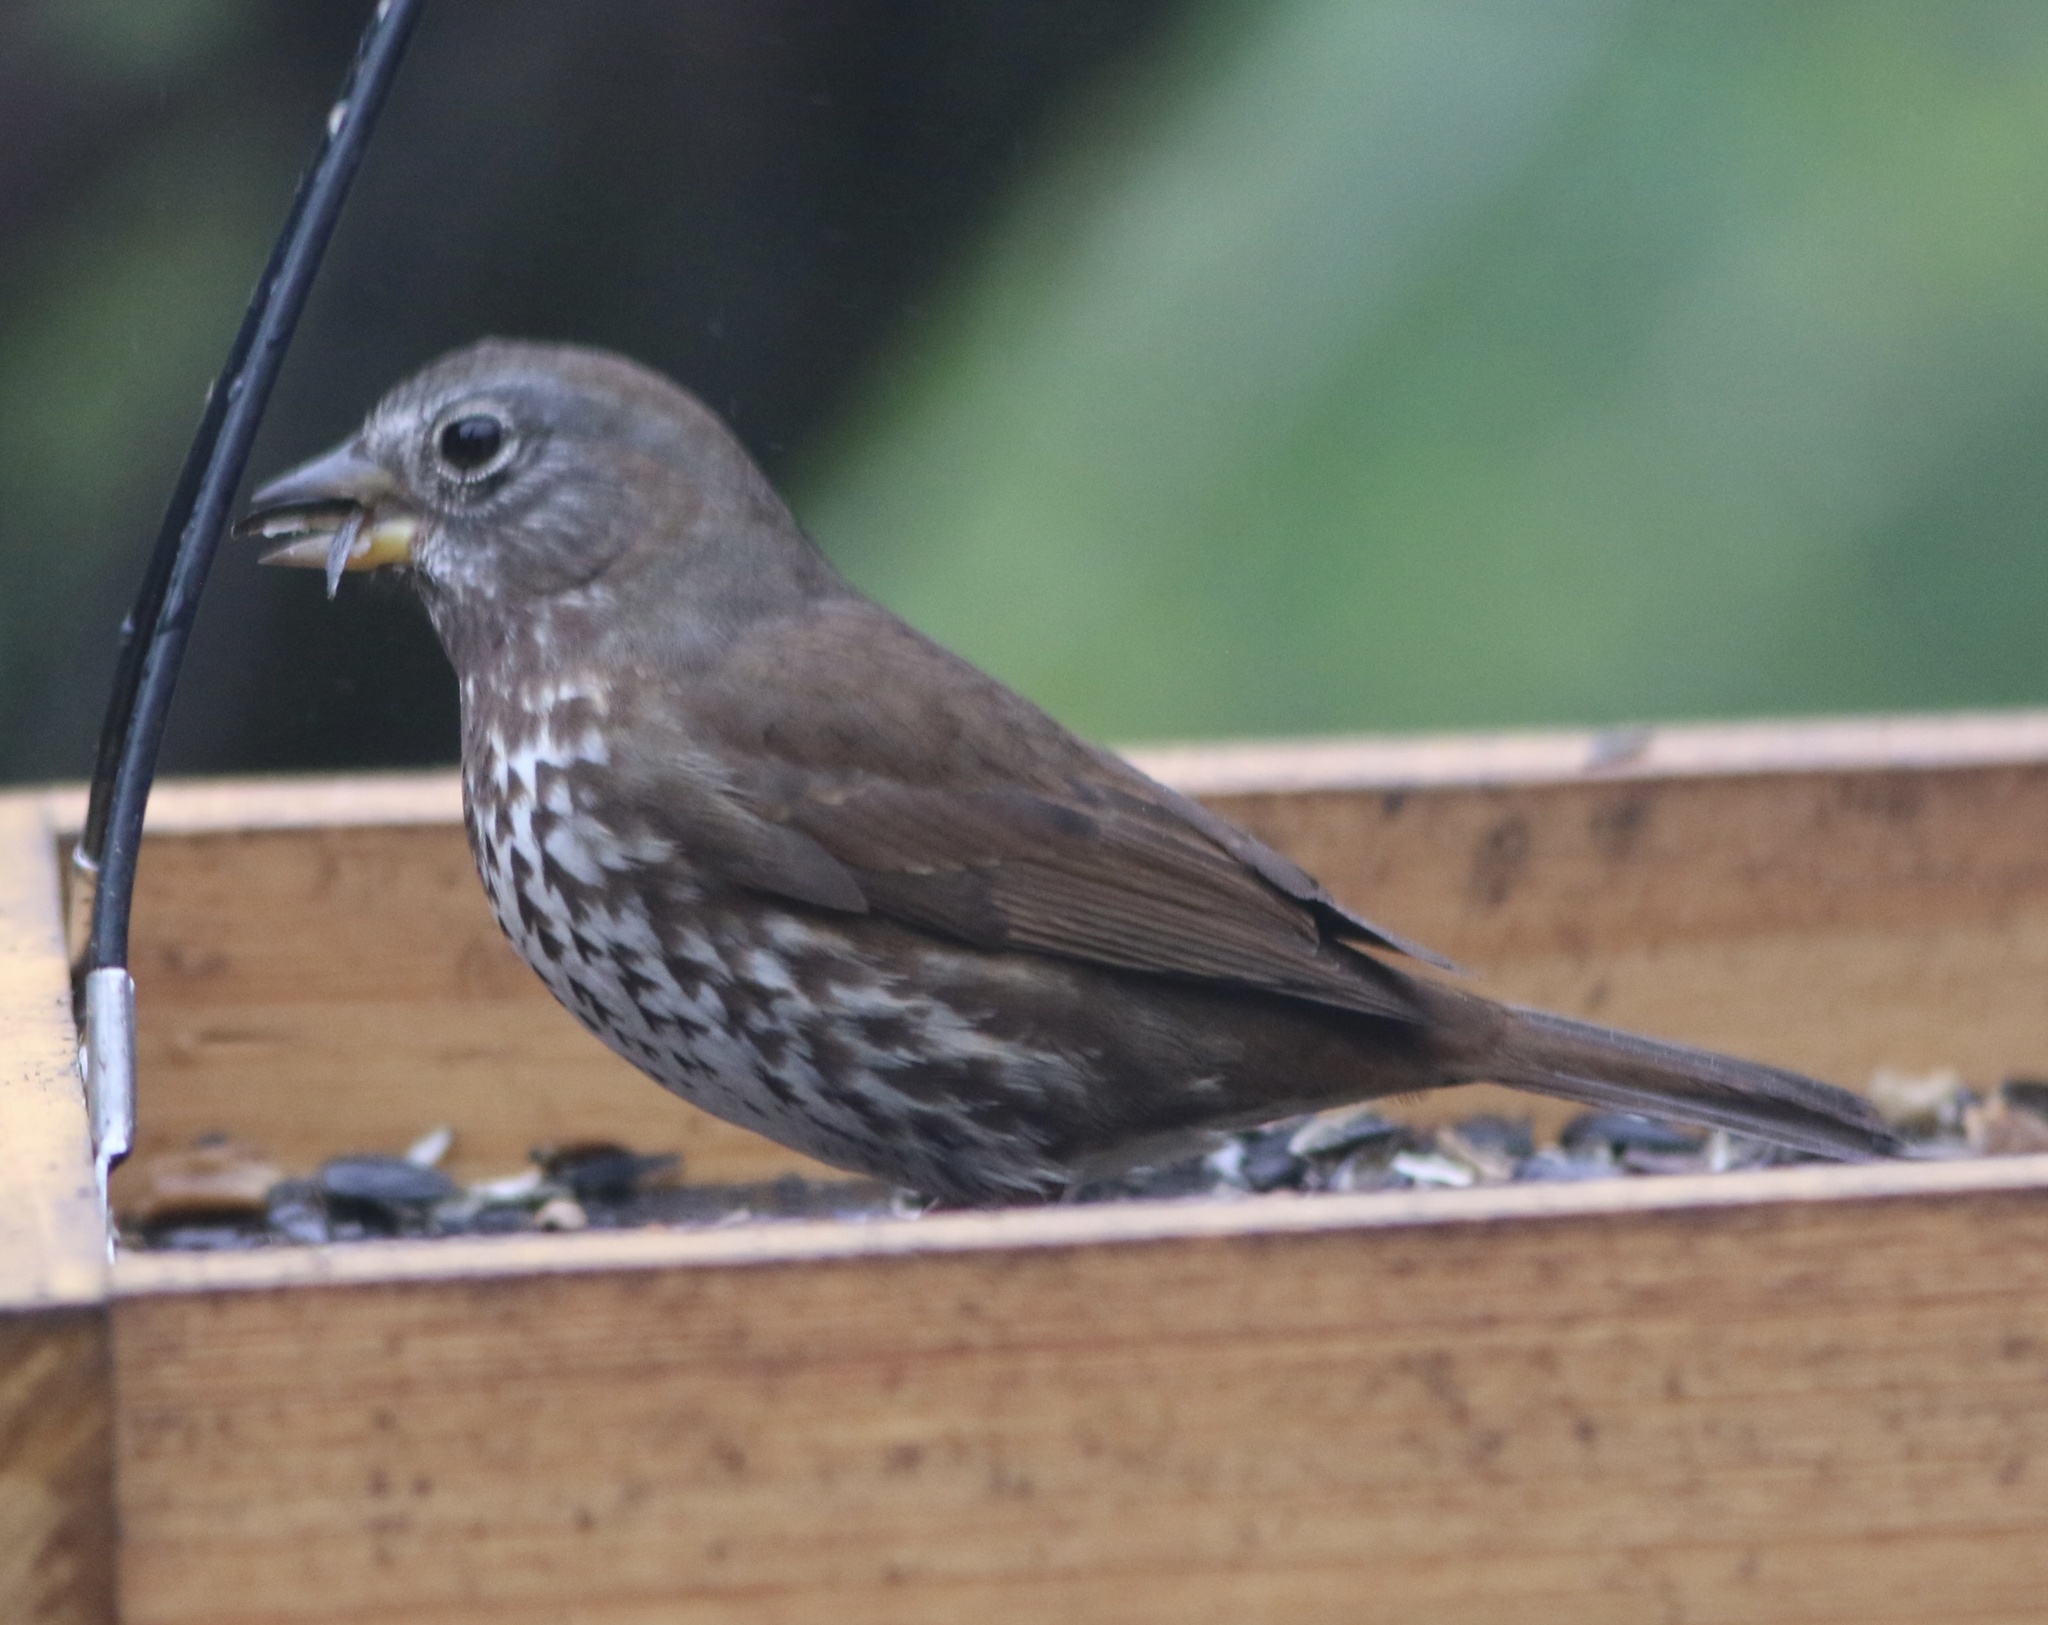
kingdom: Animalia
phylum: Chordata
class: Aves
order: Passeriformes
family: Passerellidae
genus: Passerella
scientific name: Passerella iliaca
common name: Fox sparrow
